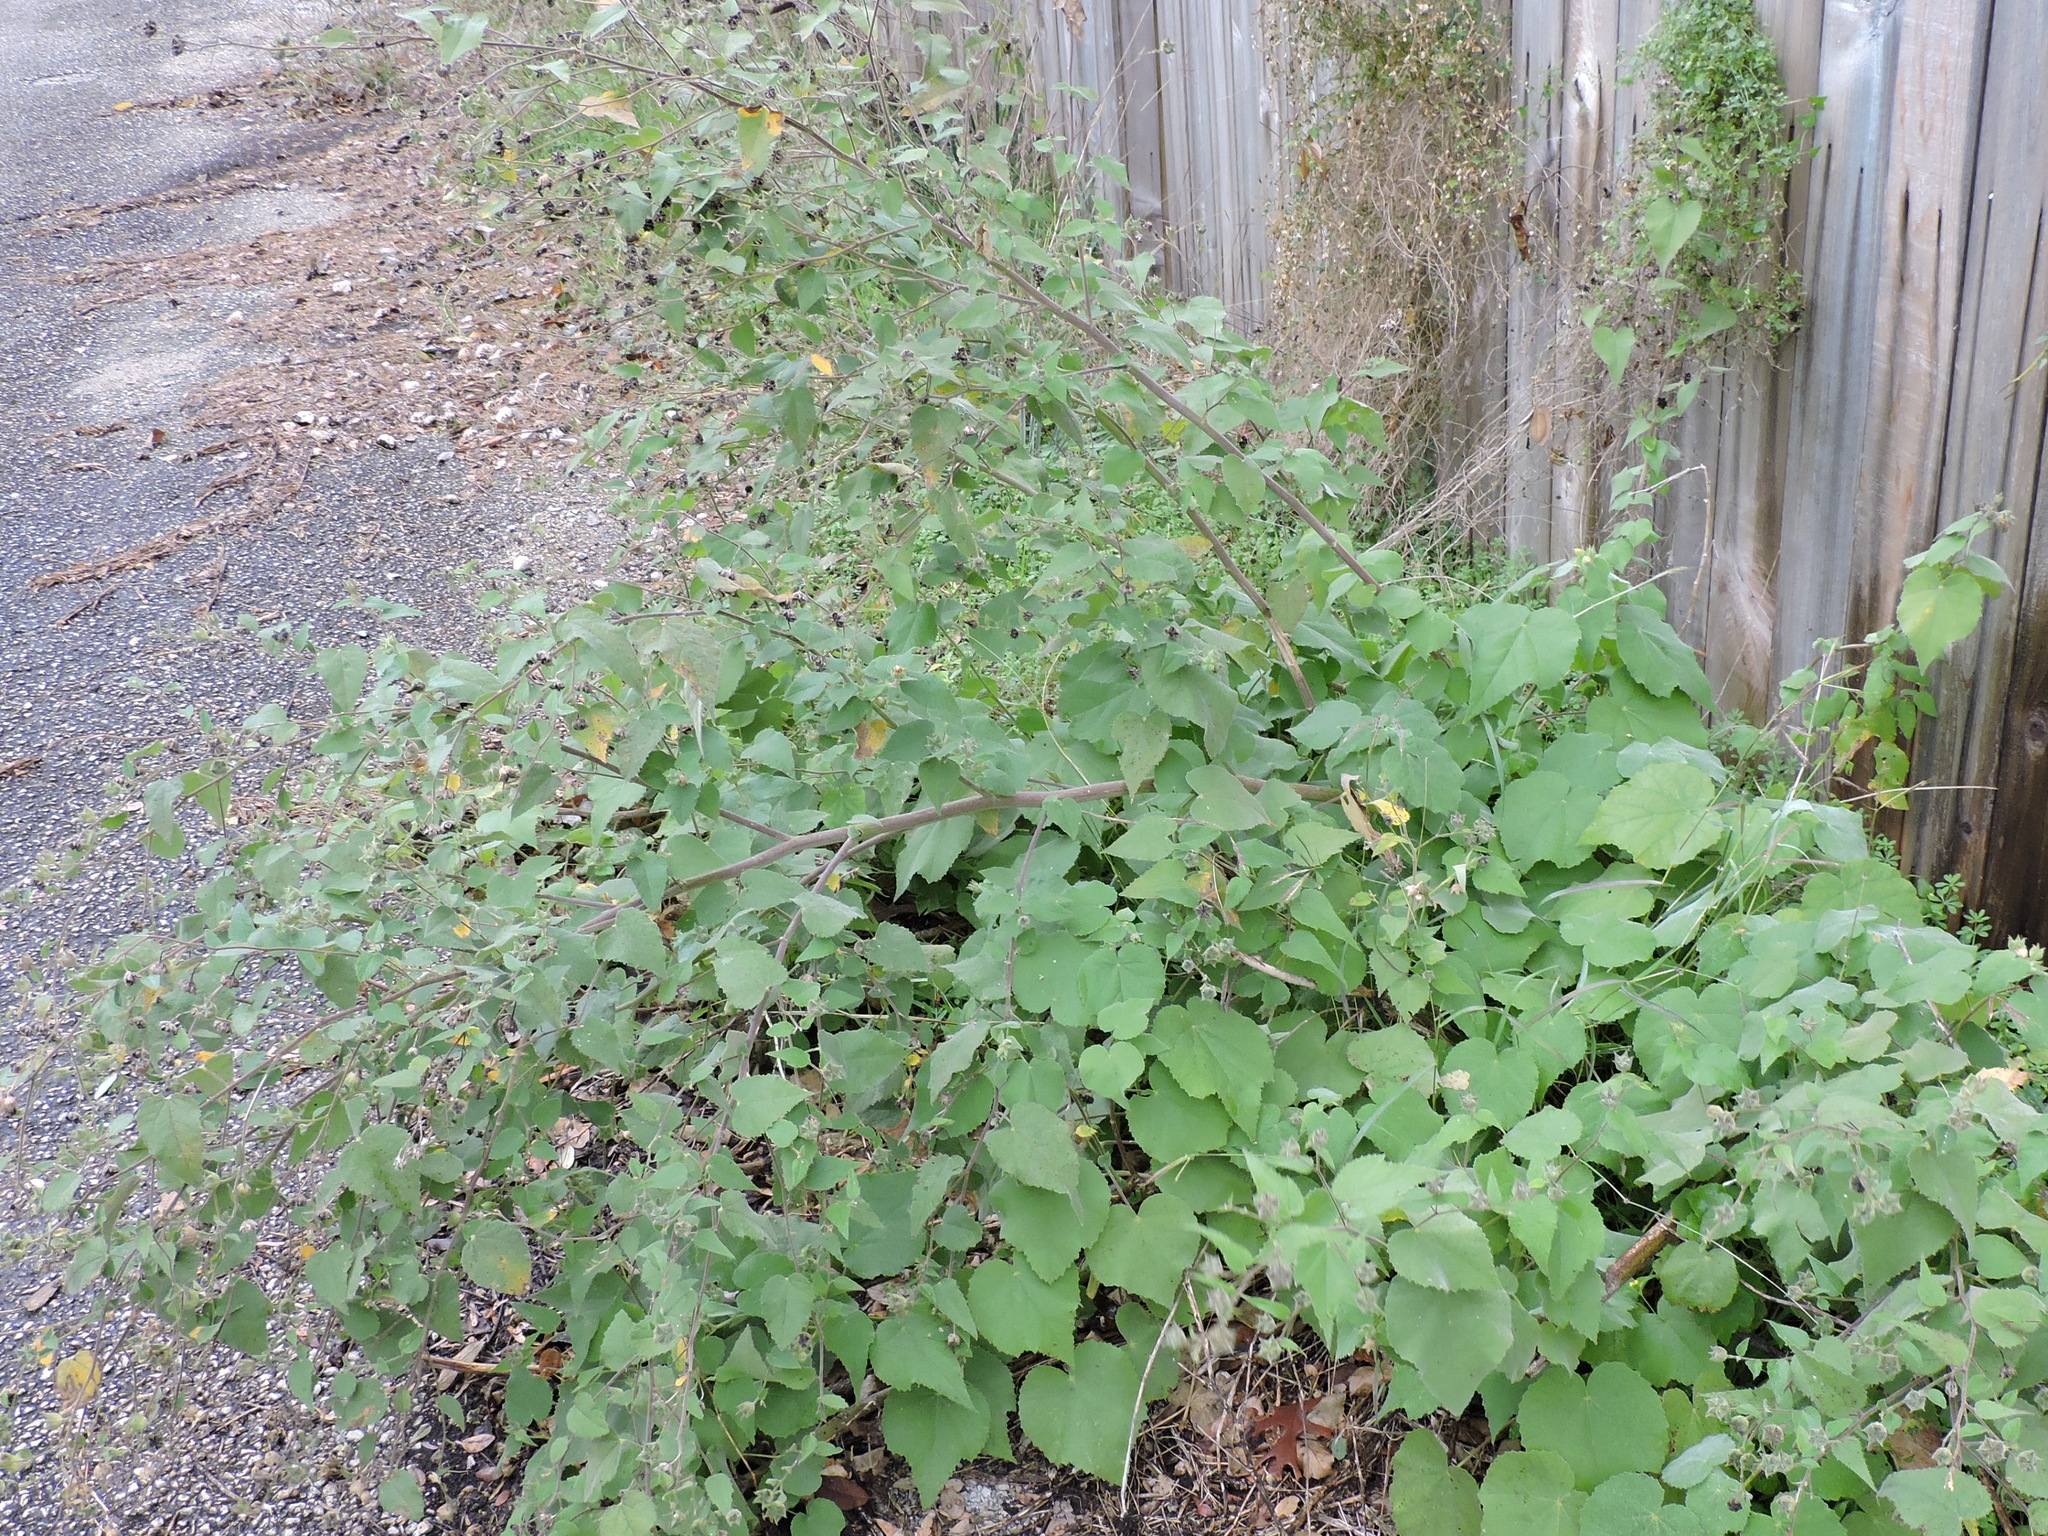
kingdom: Plantae
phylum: Tracheophyta
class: Magnoliopsida
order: Malvales
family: Malvaceae
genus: Allowissadula
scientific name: Allowissadula holosericea
